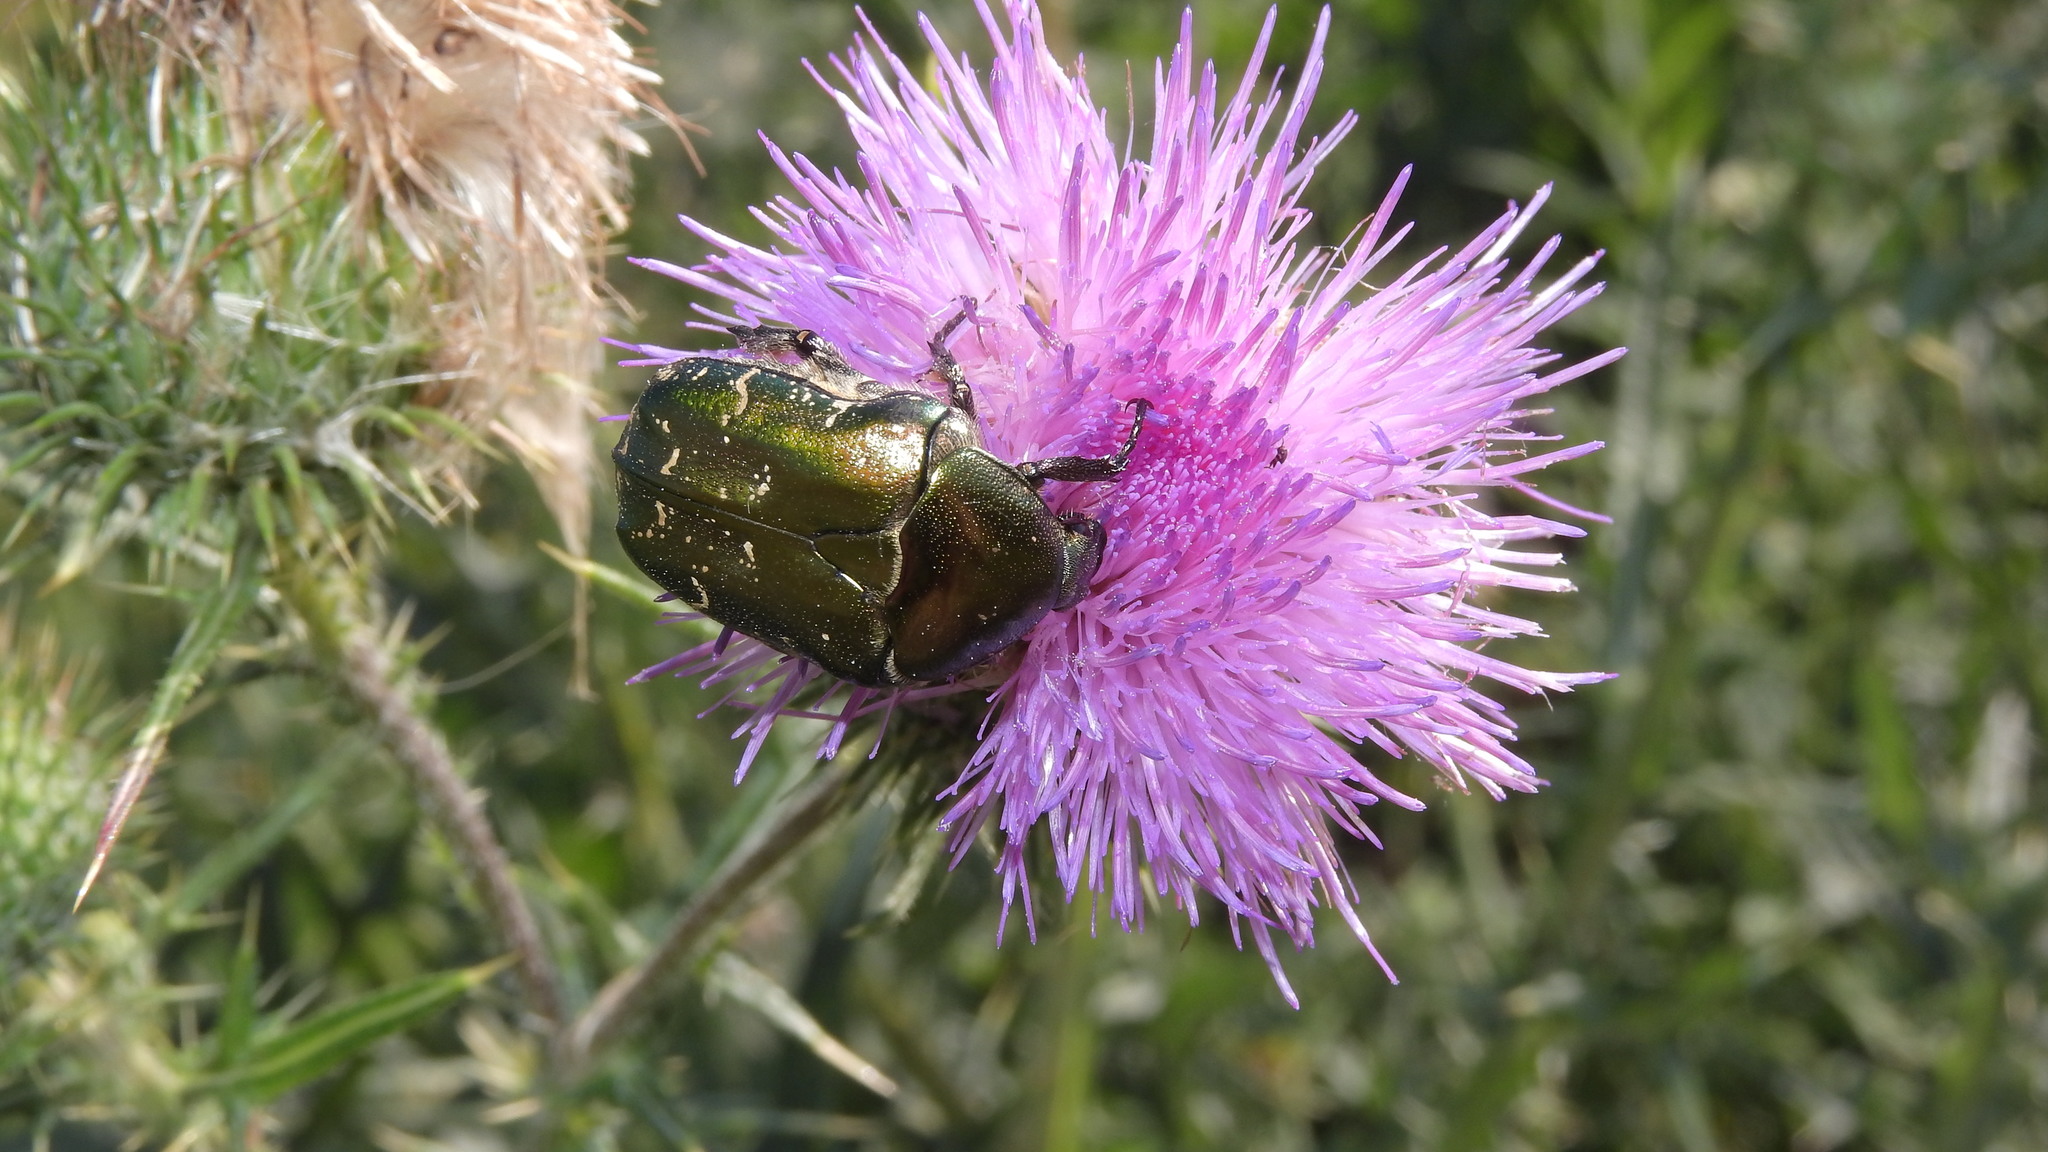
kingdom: Animalia
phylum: Arthropoda
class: Insecta
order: Coleoptera
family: Scarabaeidae
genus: Cetonia
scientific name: Cetonia aurata
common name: Rose chafer
